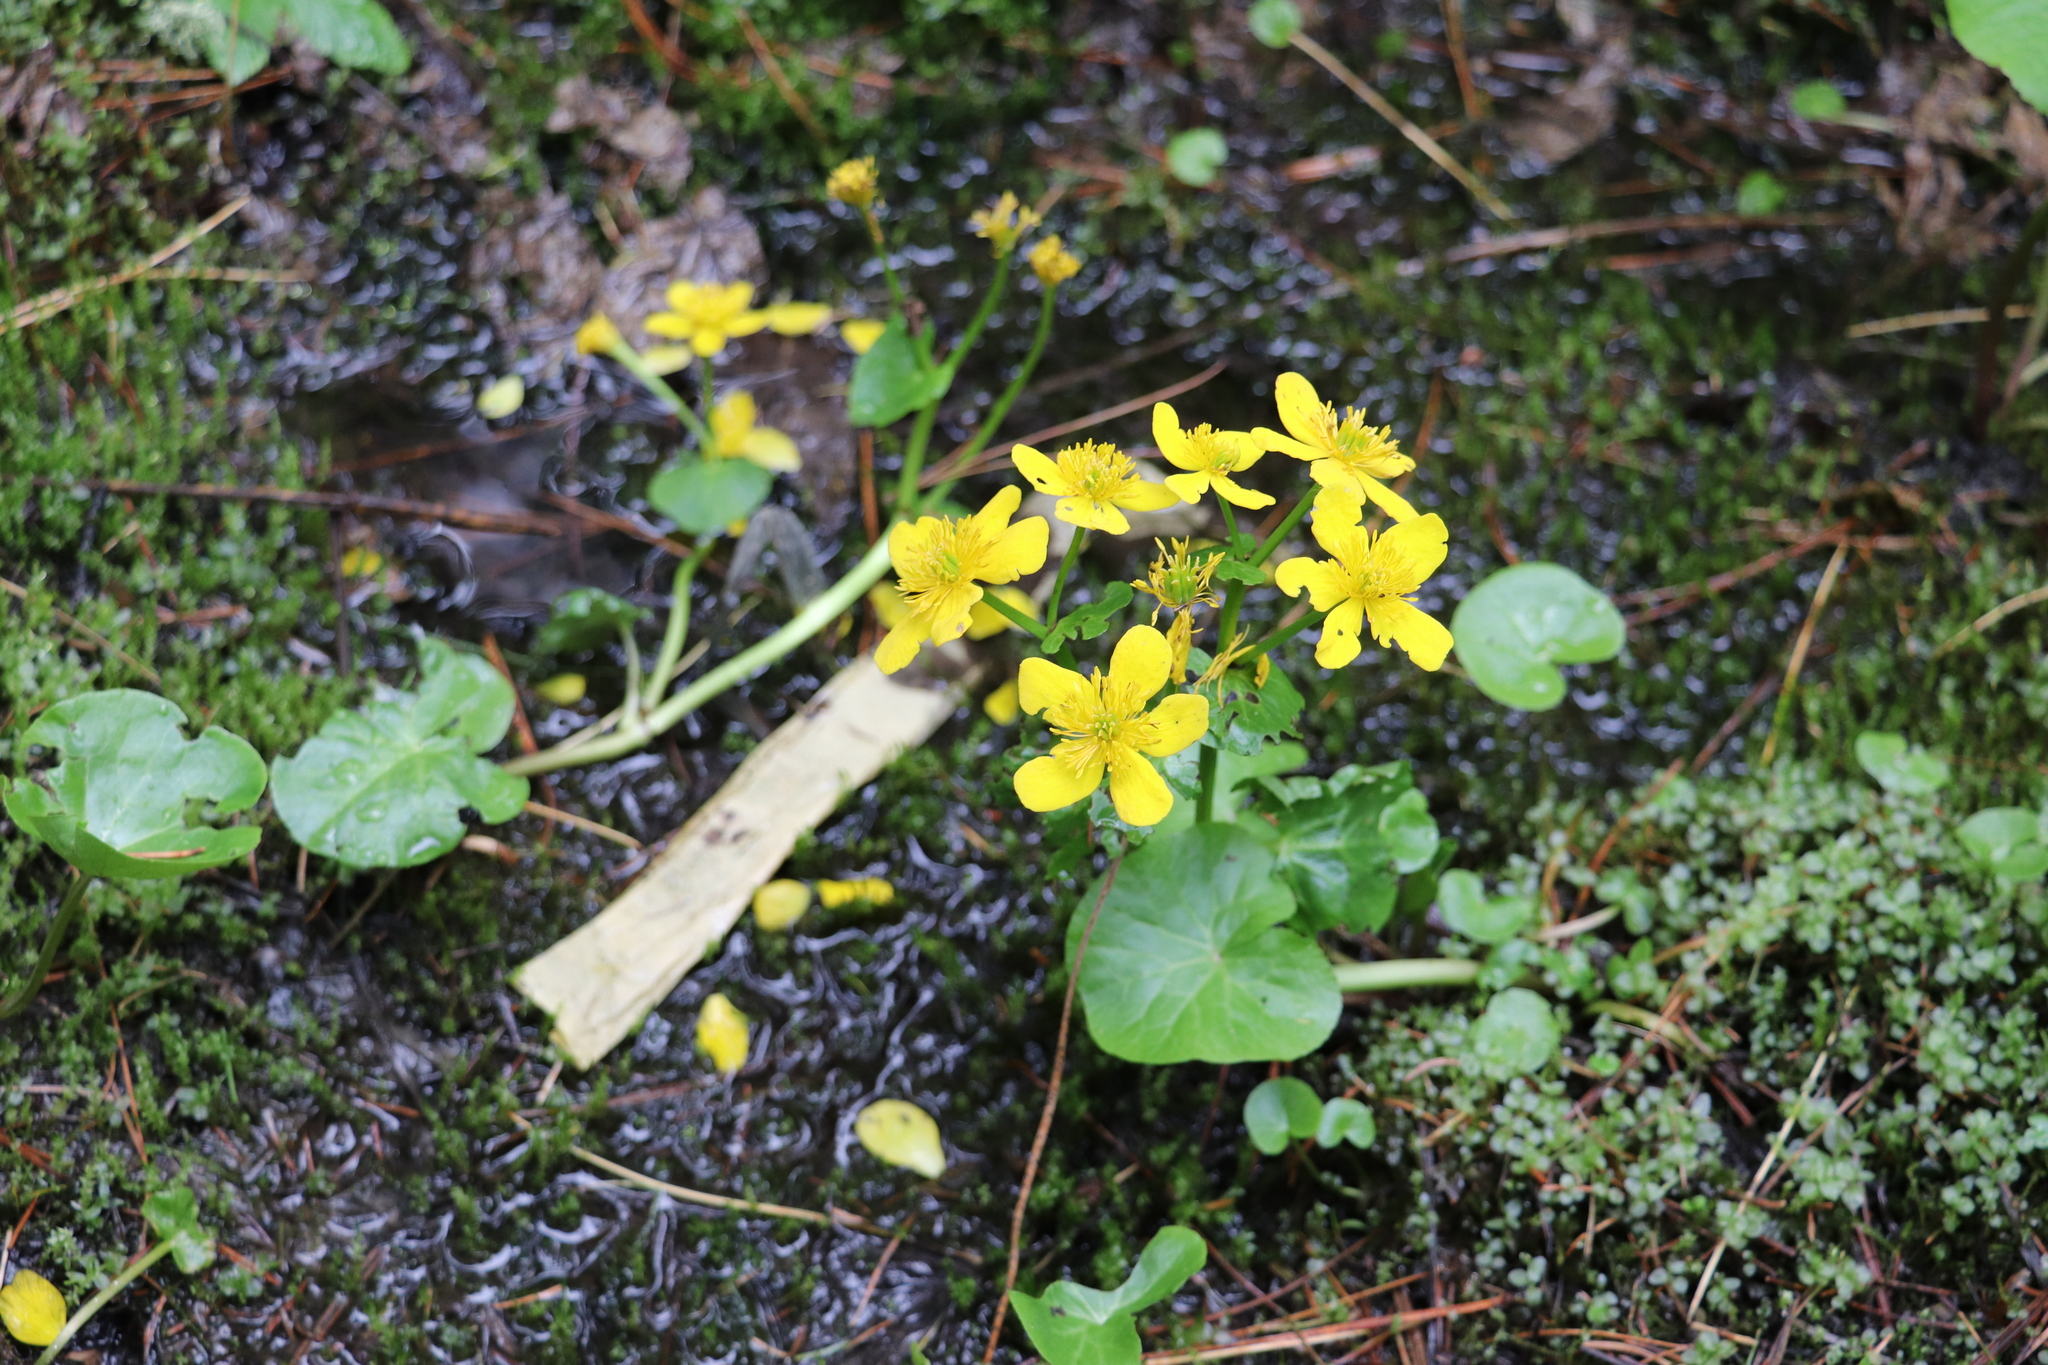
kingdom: Plantae
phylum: Tracheophyta
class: Magnoliopsida
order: Ranunculales
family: Ranunculaceae
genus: Caltha
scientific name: Caltha palustris
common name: Marsh marigold
